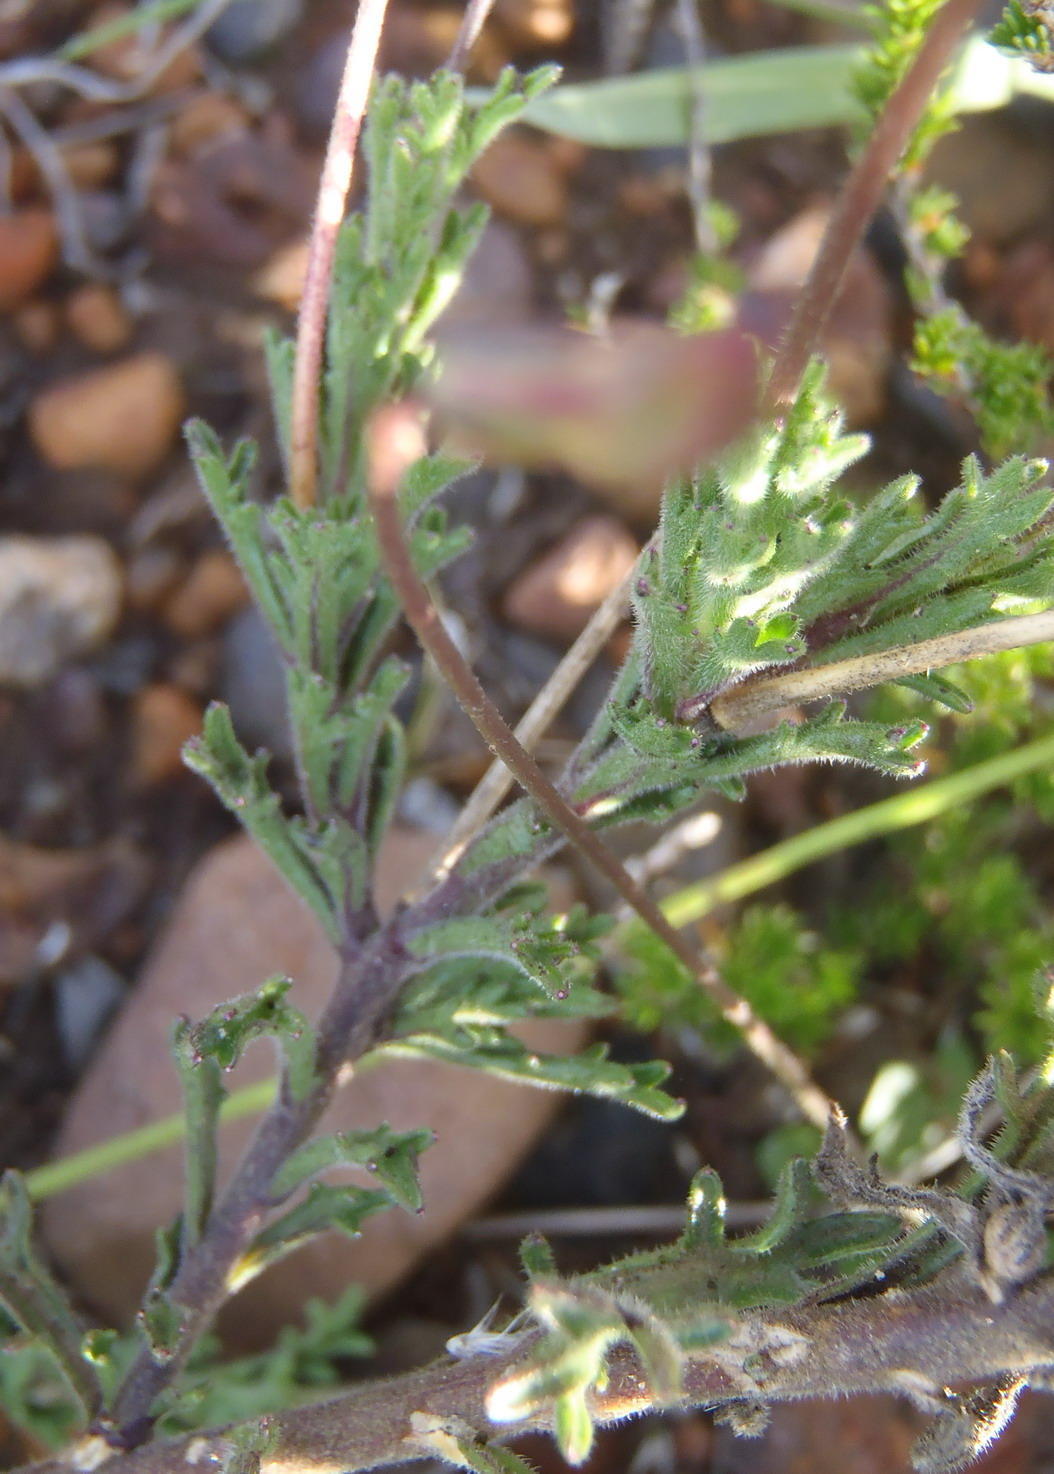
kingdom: Plantae
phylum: Tracheophyta
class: Magnoliopsida
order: Asterales
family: Campanulaceae
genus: Lobelia
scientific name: Lobelia tomentosa
